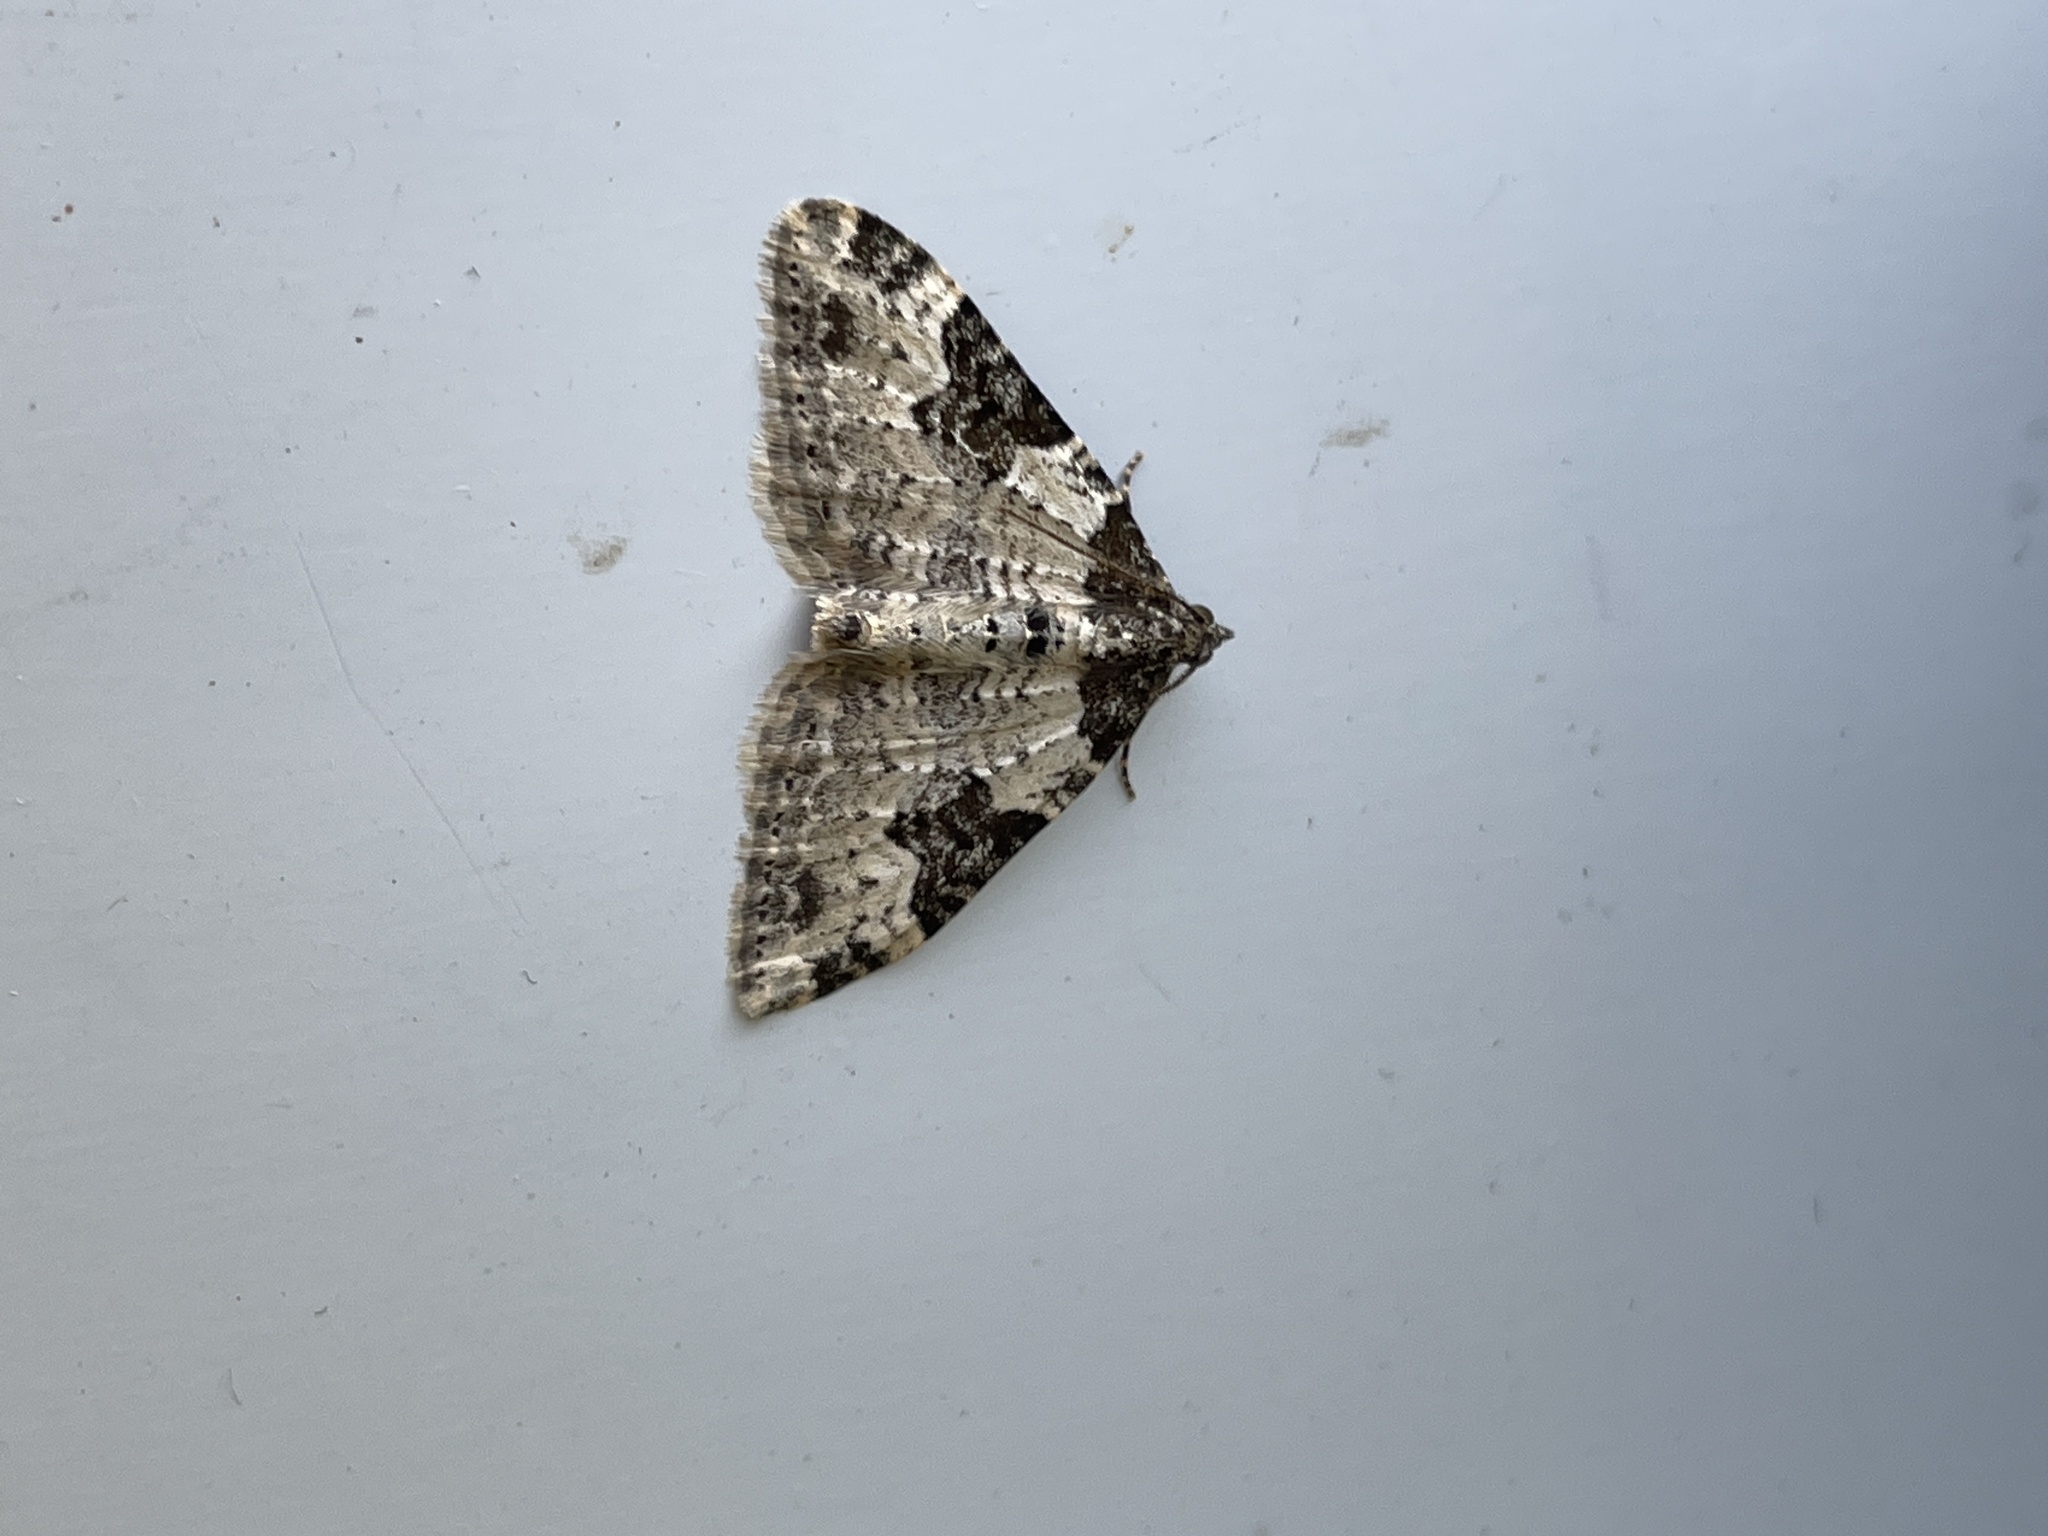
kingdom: Animalia
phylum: Arthropoda
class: Insecta
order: Lepidoptera
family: Geometridae
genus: Xanthorhoe
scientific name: Xanthorhoe fluctuata
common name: Garden carpet
